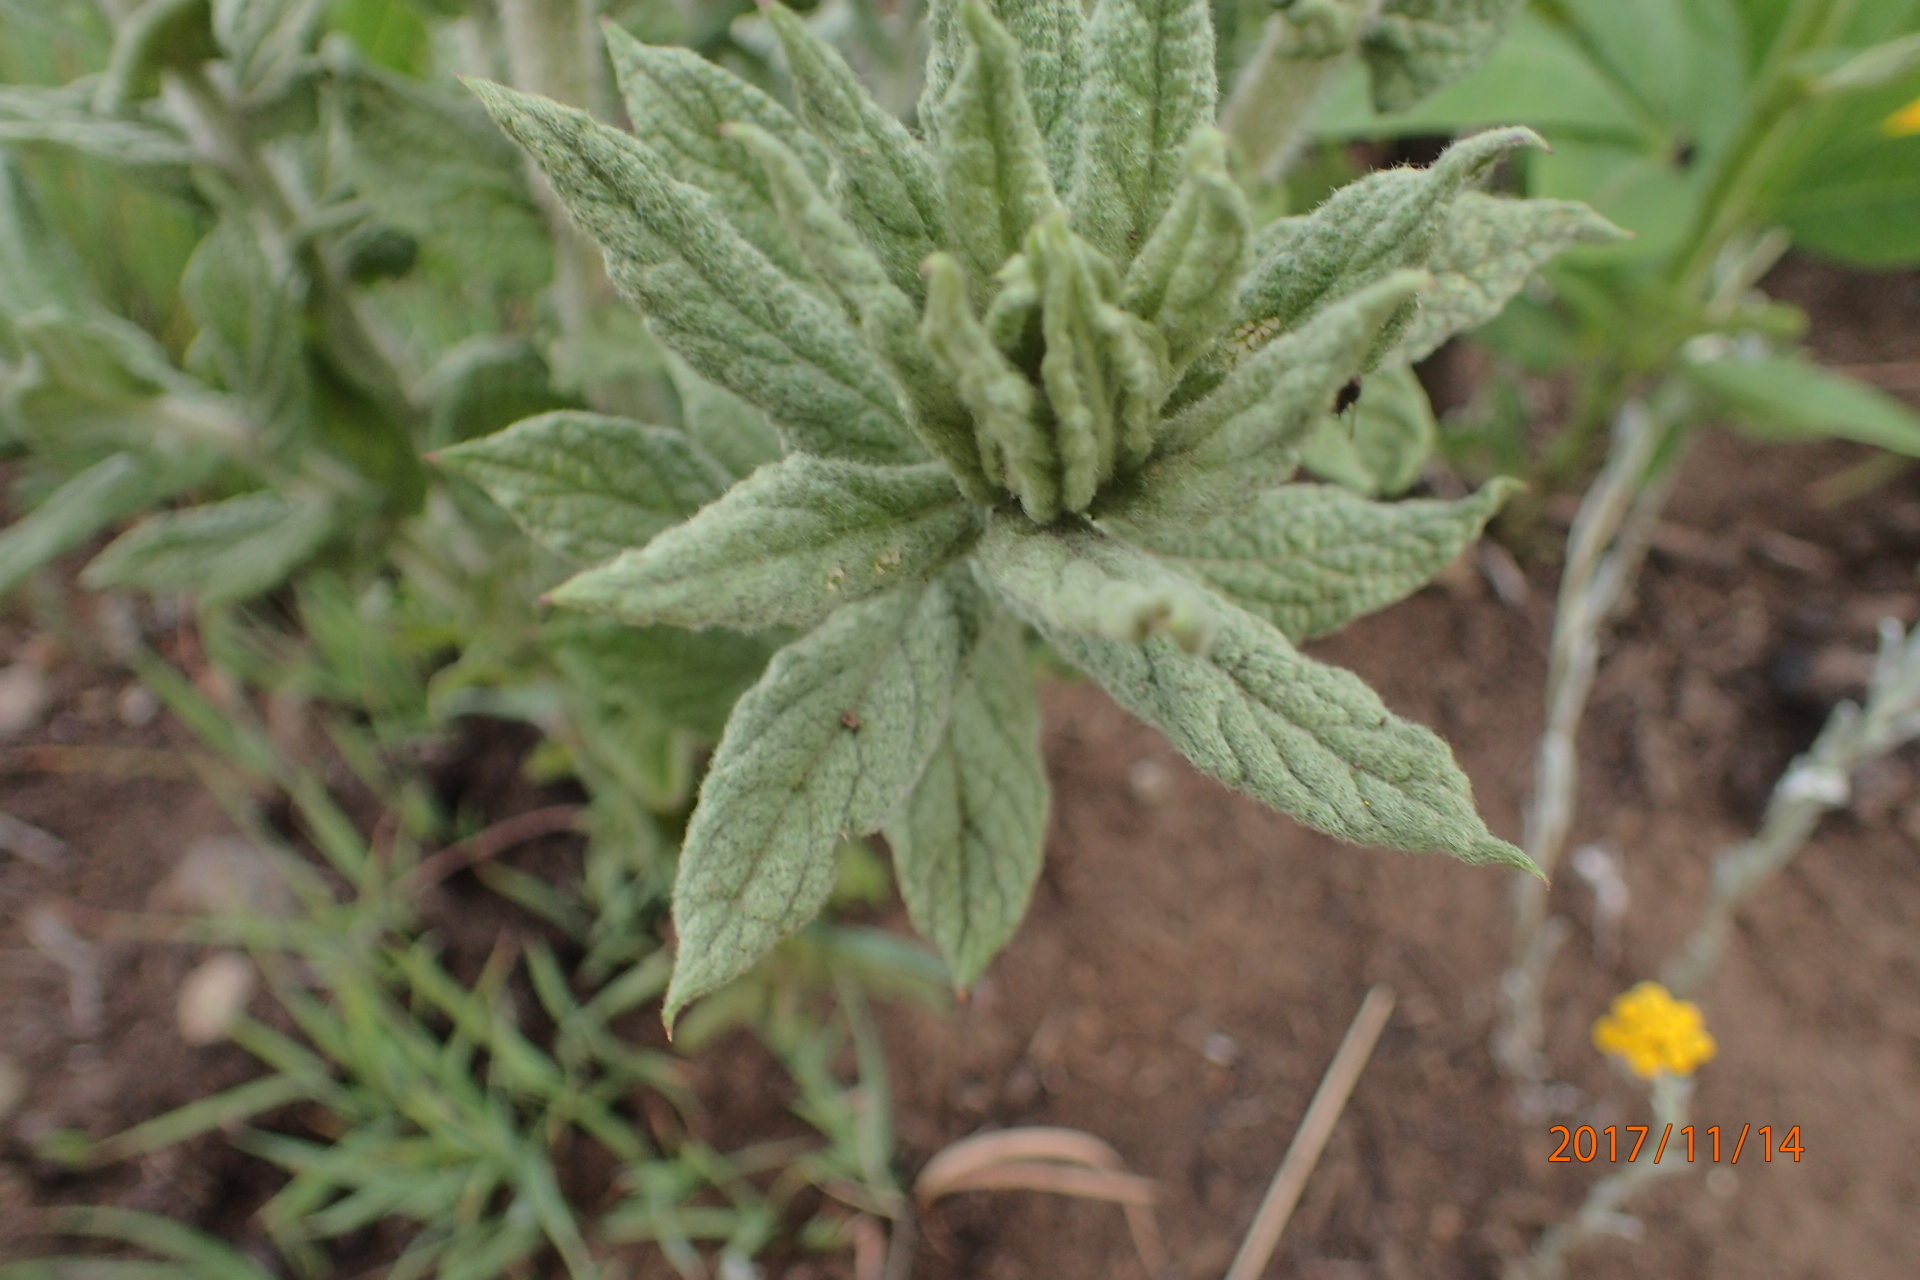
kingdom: Plantae
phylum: Tracheophyta
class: Magnoliopsida
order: Asterales
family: Asteraceae
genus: Hilliardiella
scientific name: Hilliardiella hirsuta
